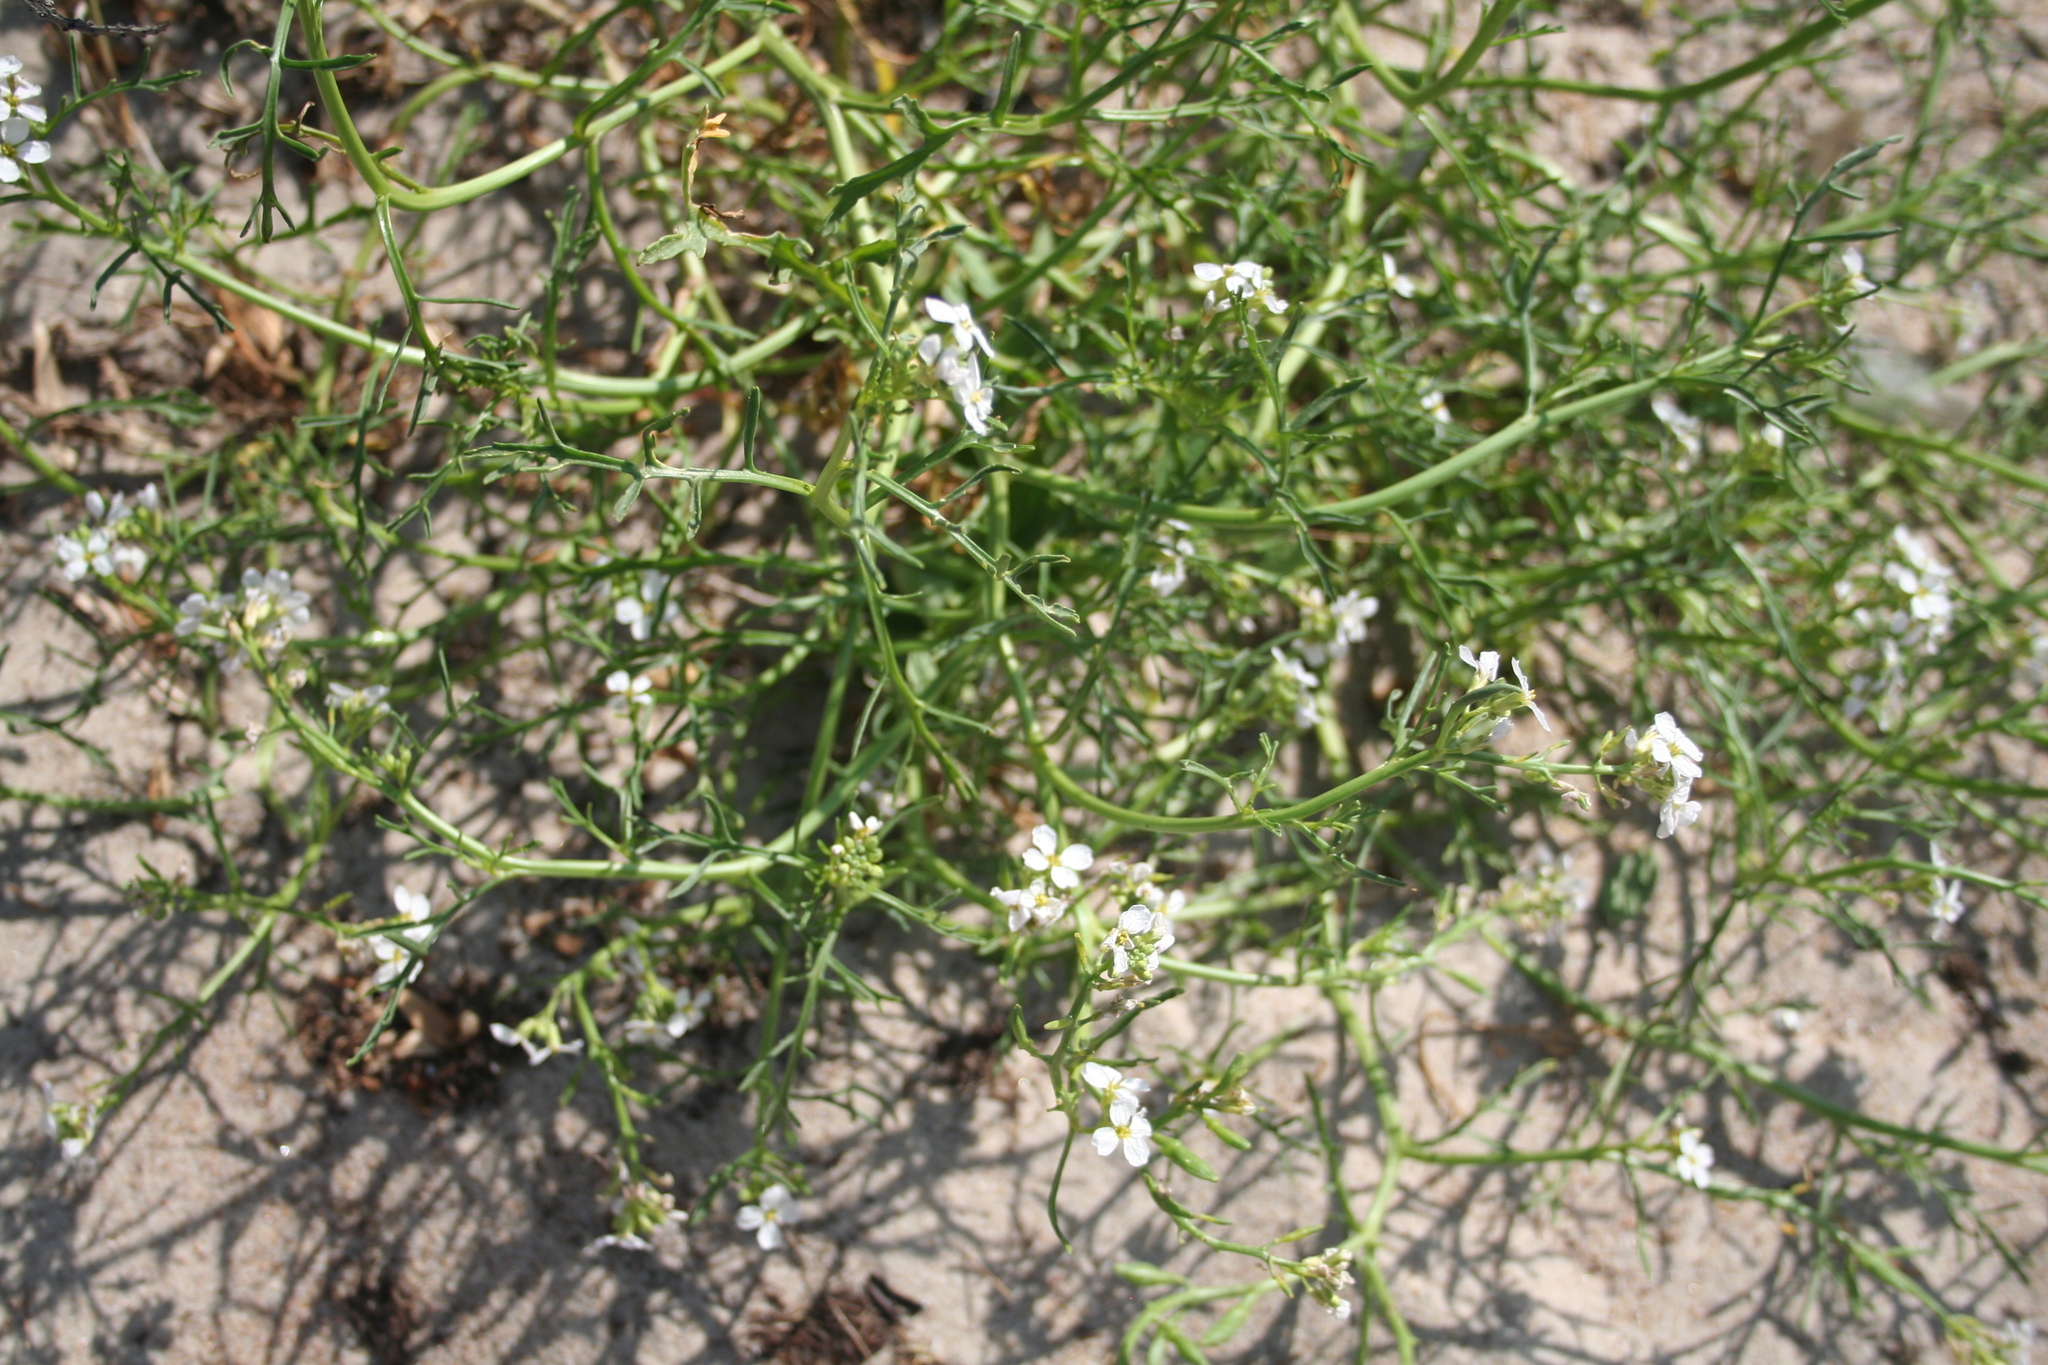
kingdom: Plantae
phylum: Tracheophyta
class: Magnoliopsida
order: Brassicales
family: Brassicaceae
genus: Cakile
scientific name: Cakile maritima
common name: Sea rocket
